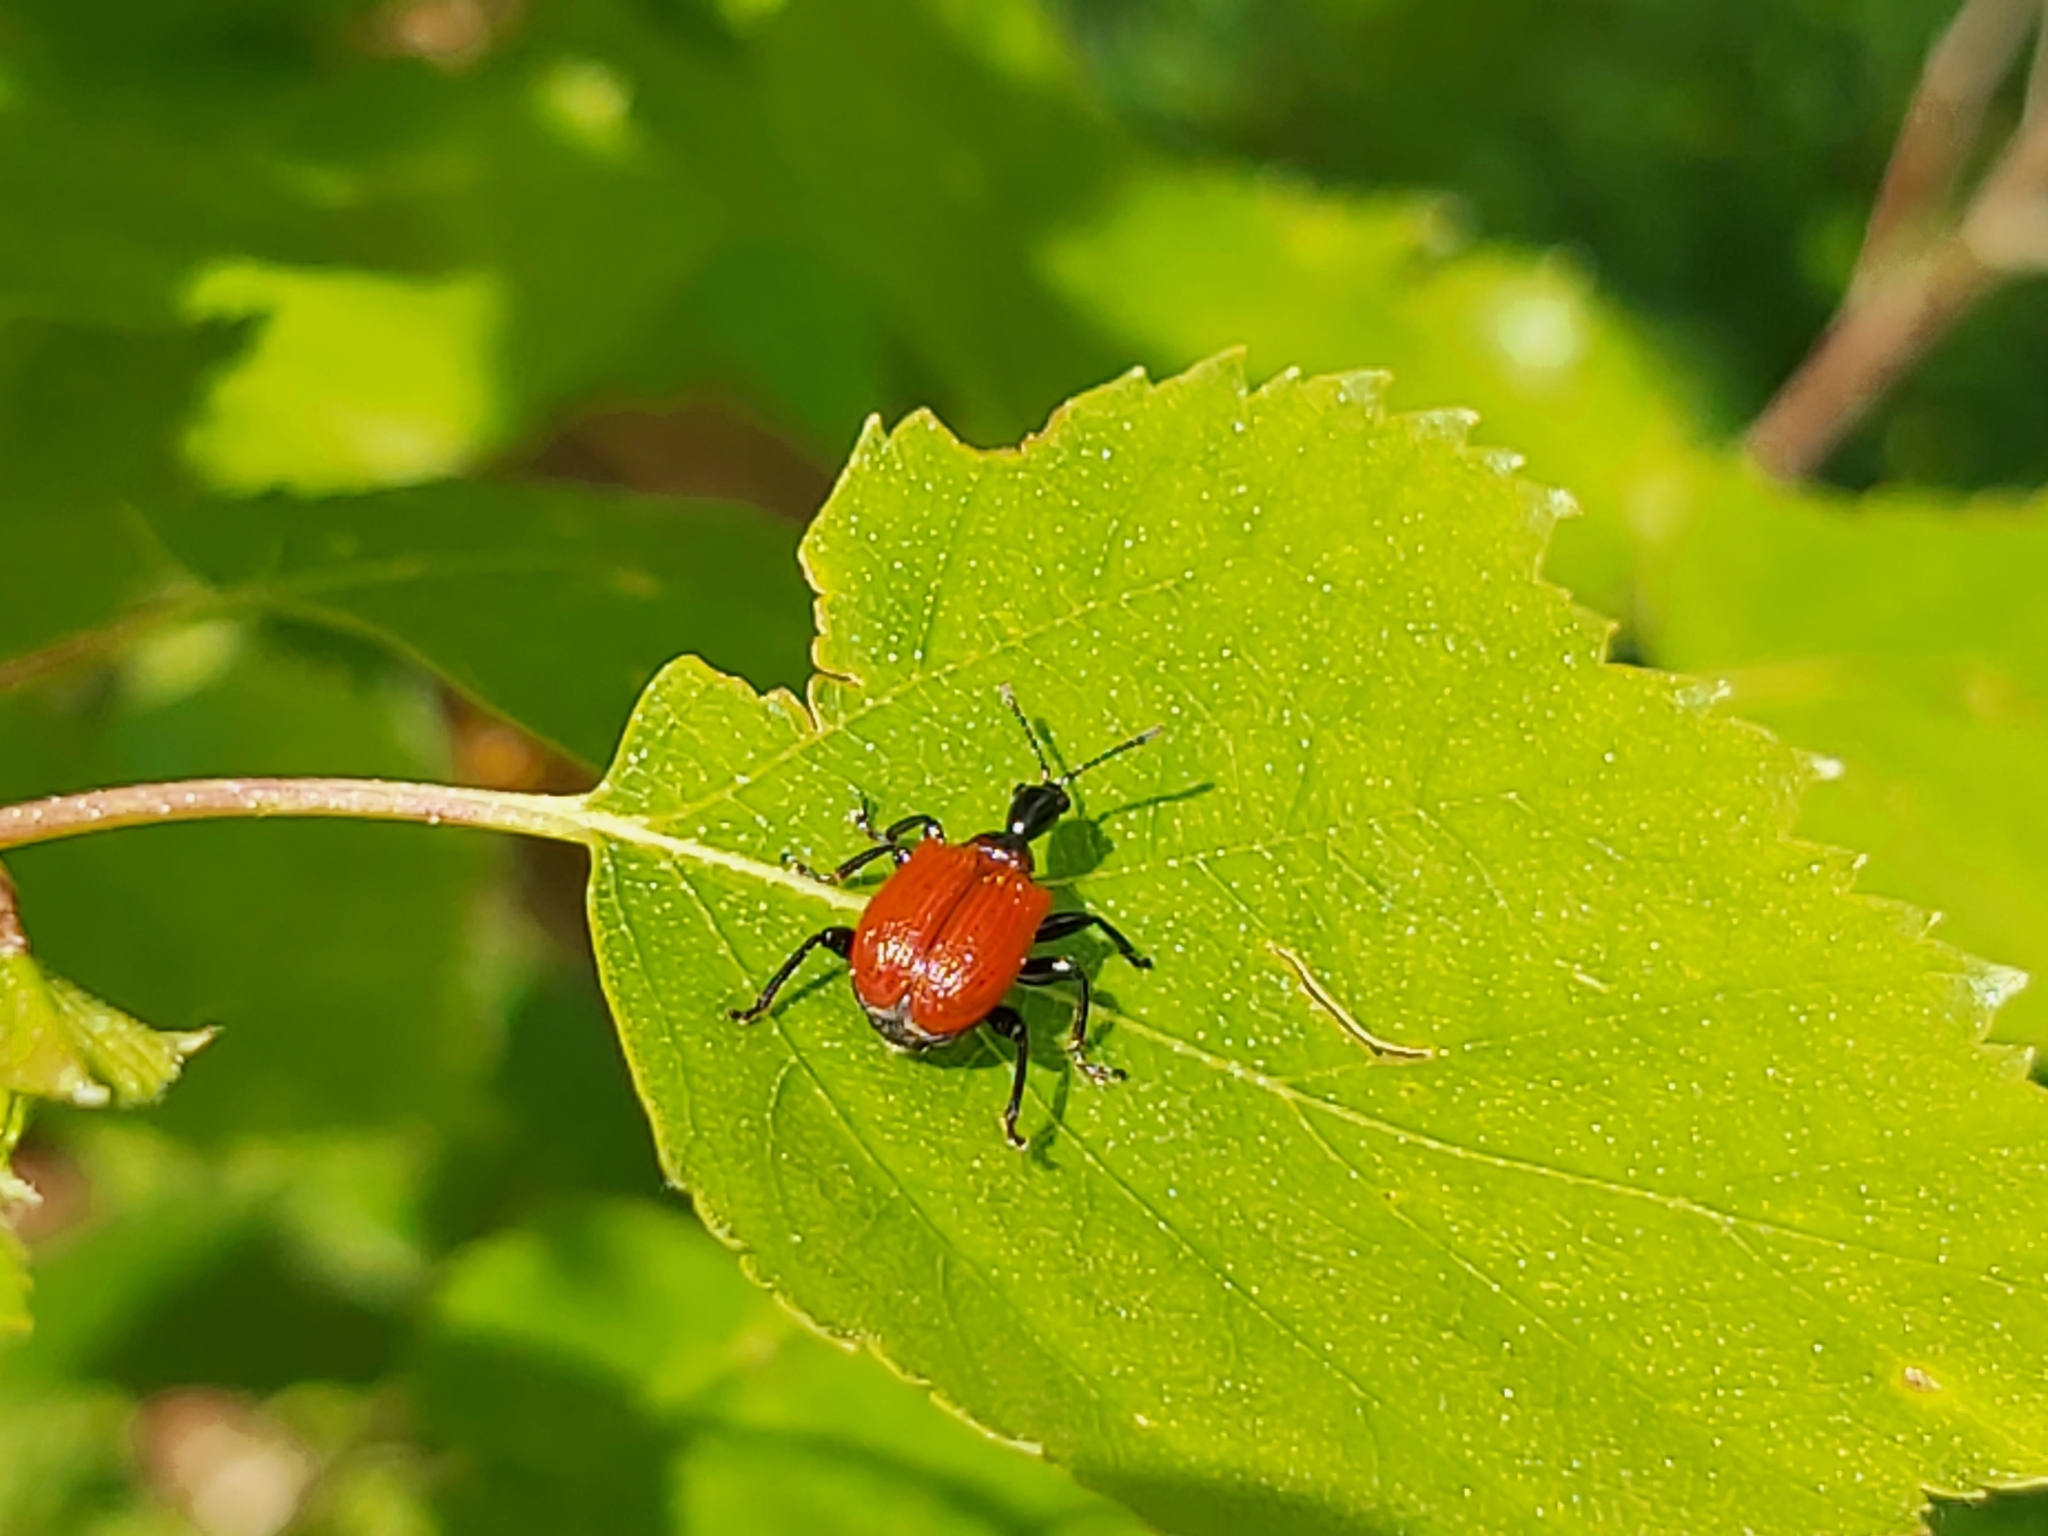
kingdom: Animalia
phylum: Arthropoda
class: Insecta
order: Coleoptera
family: Attelabidae
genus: Apoderus
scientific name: Apoderus coryli
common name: Hazel leaf roller
